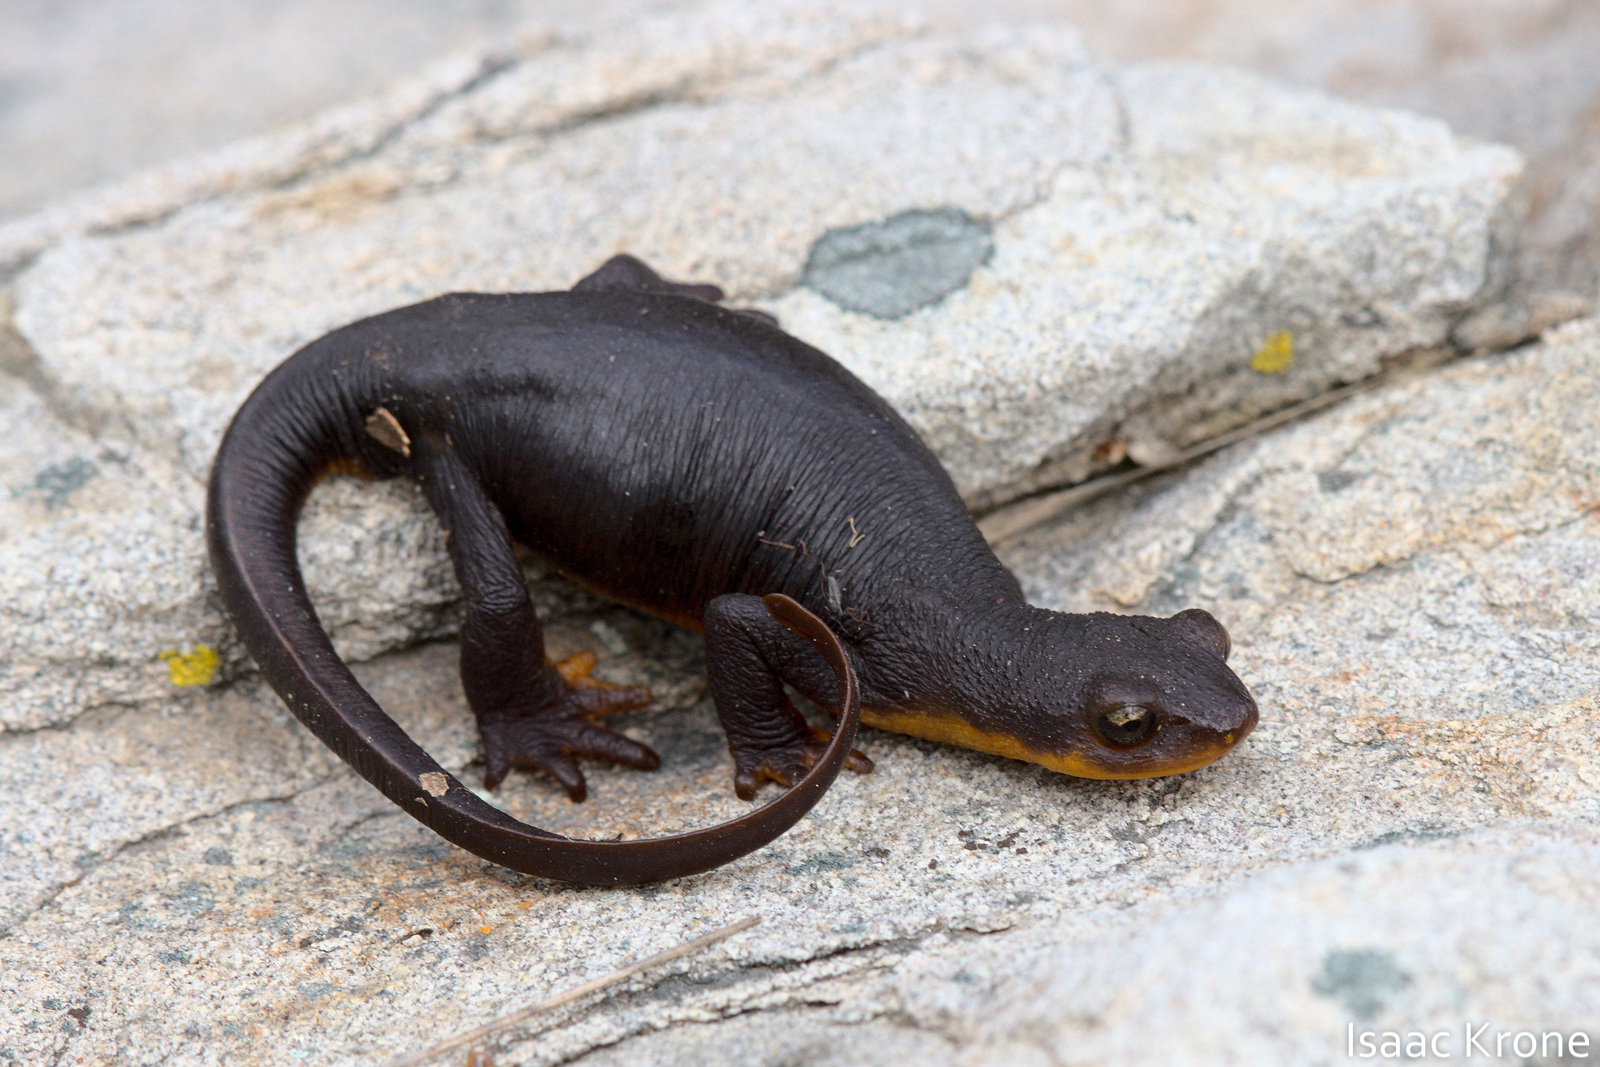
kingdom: Animalia
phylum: Chordata
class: Amphibia
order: Caudata
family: Salamandridae
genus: Taricha
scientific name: Taricha granulosa
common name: Roughskin newt
